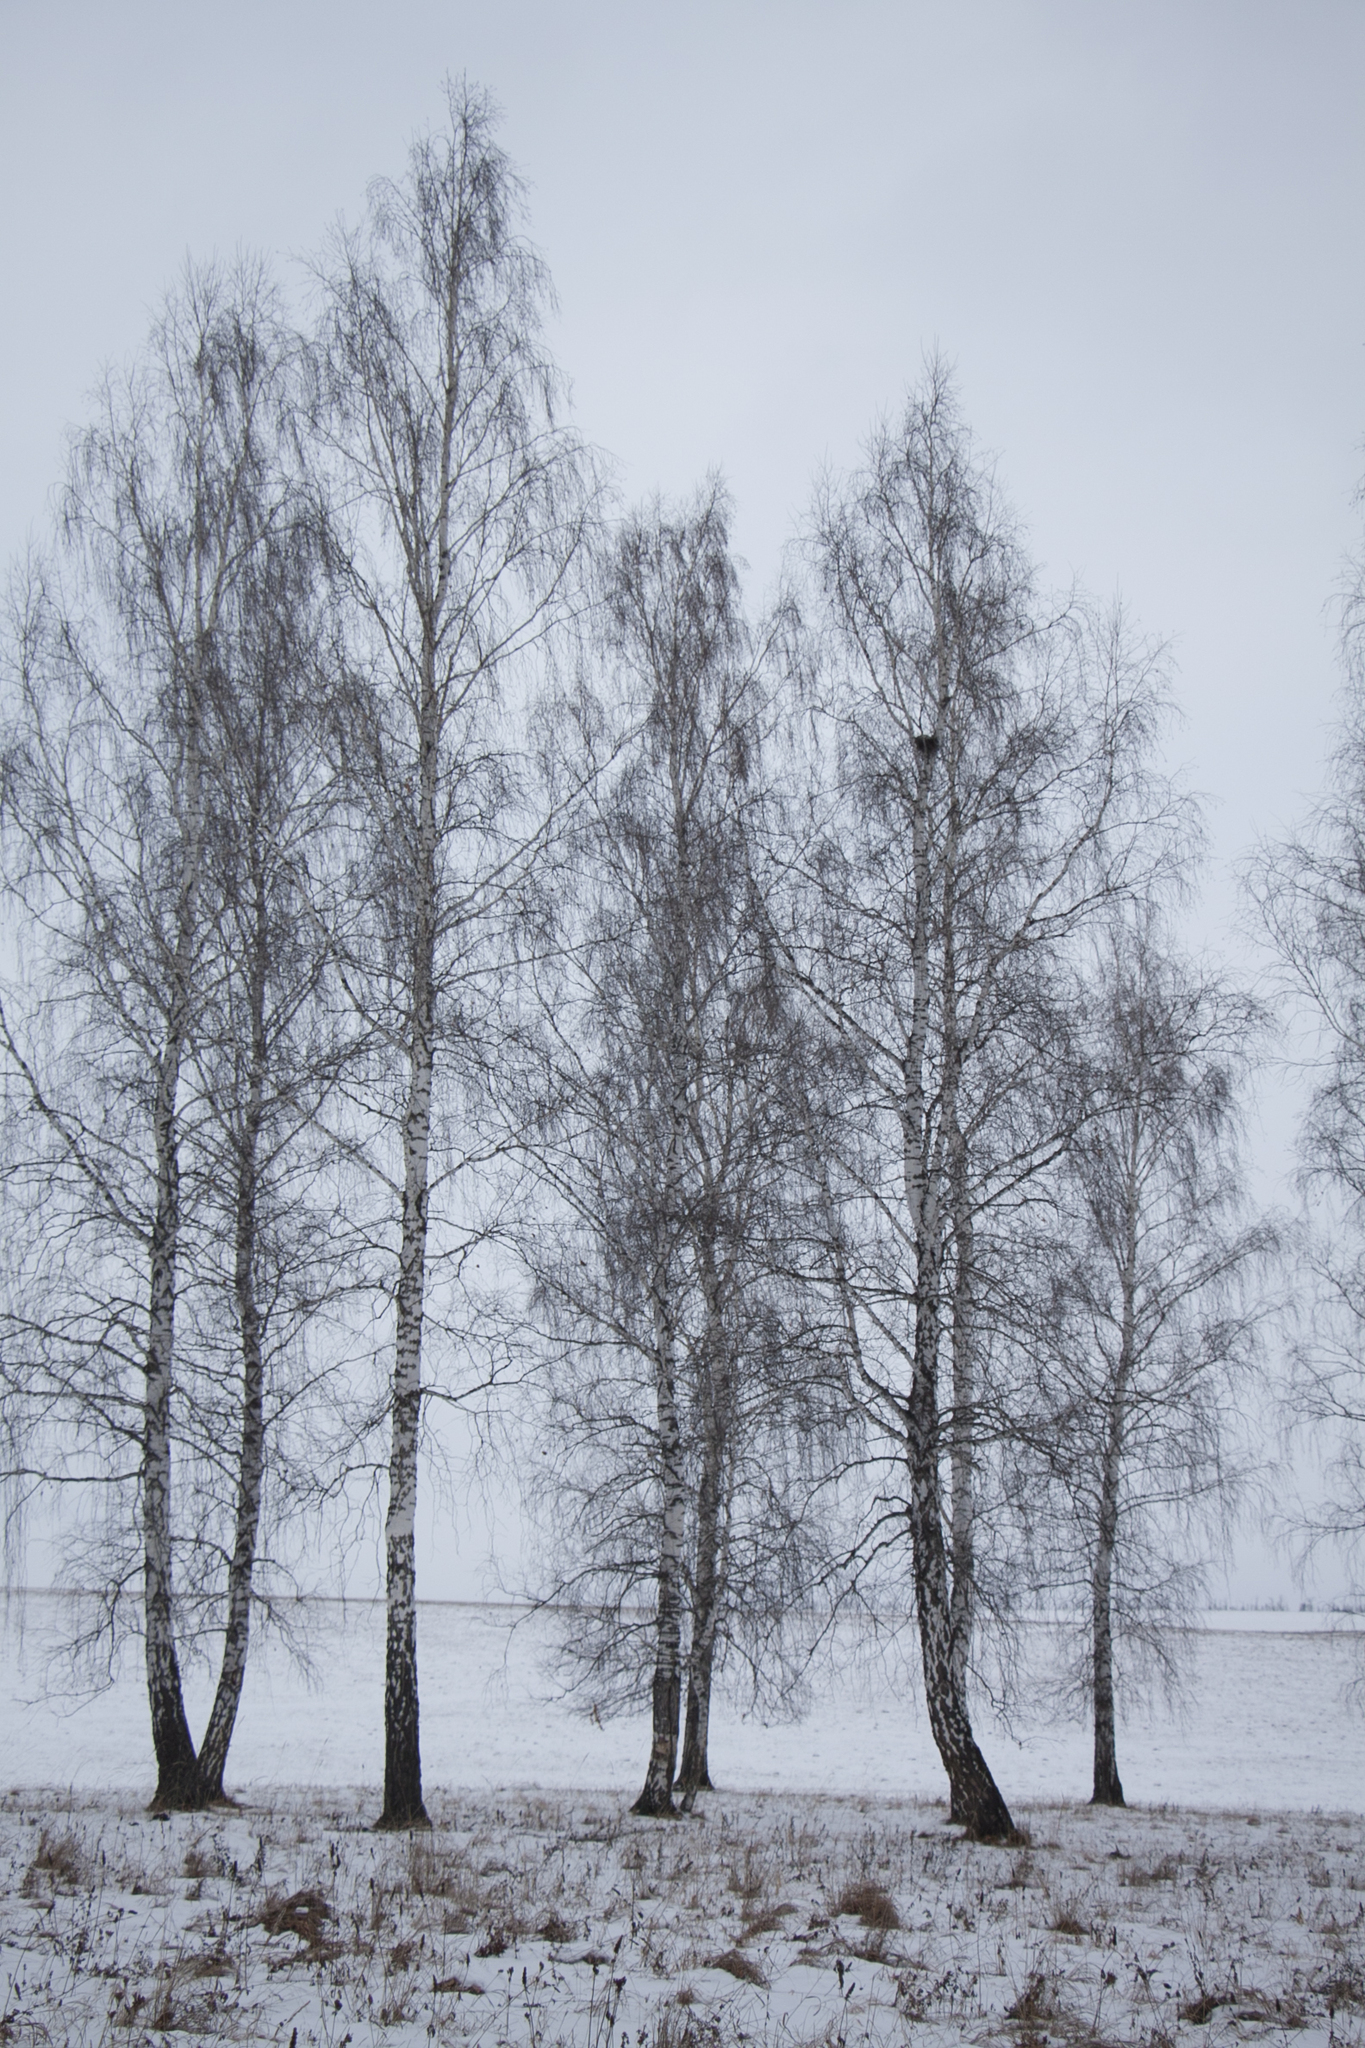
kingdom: Plantae
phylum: Tracheophyta
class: Magnoliopsida
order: Fagales
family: Betulaceae
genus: Betula
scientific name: Betula pendula
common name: Silver birch
